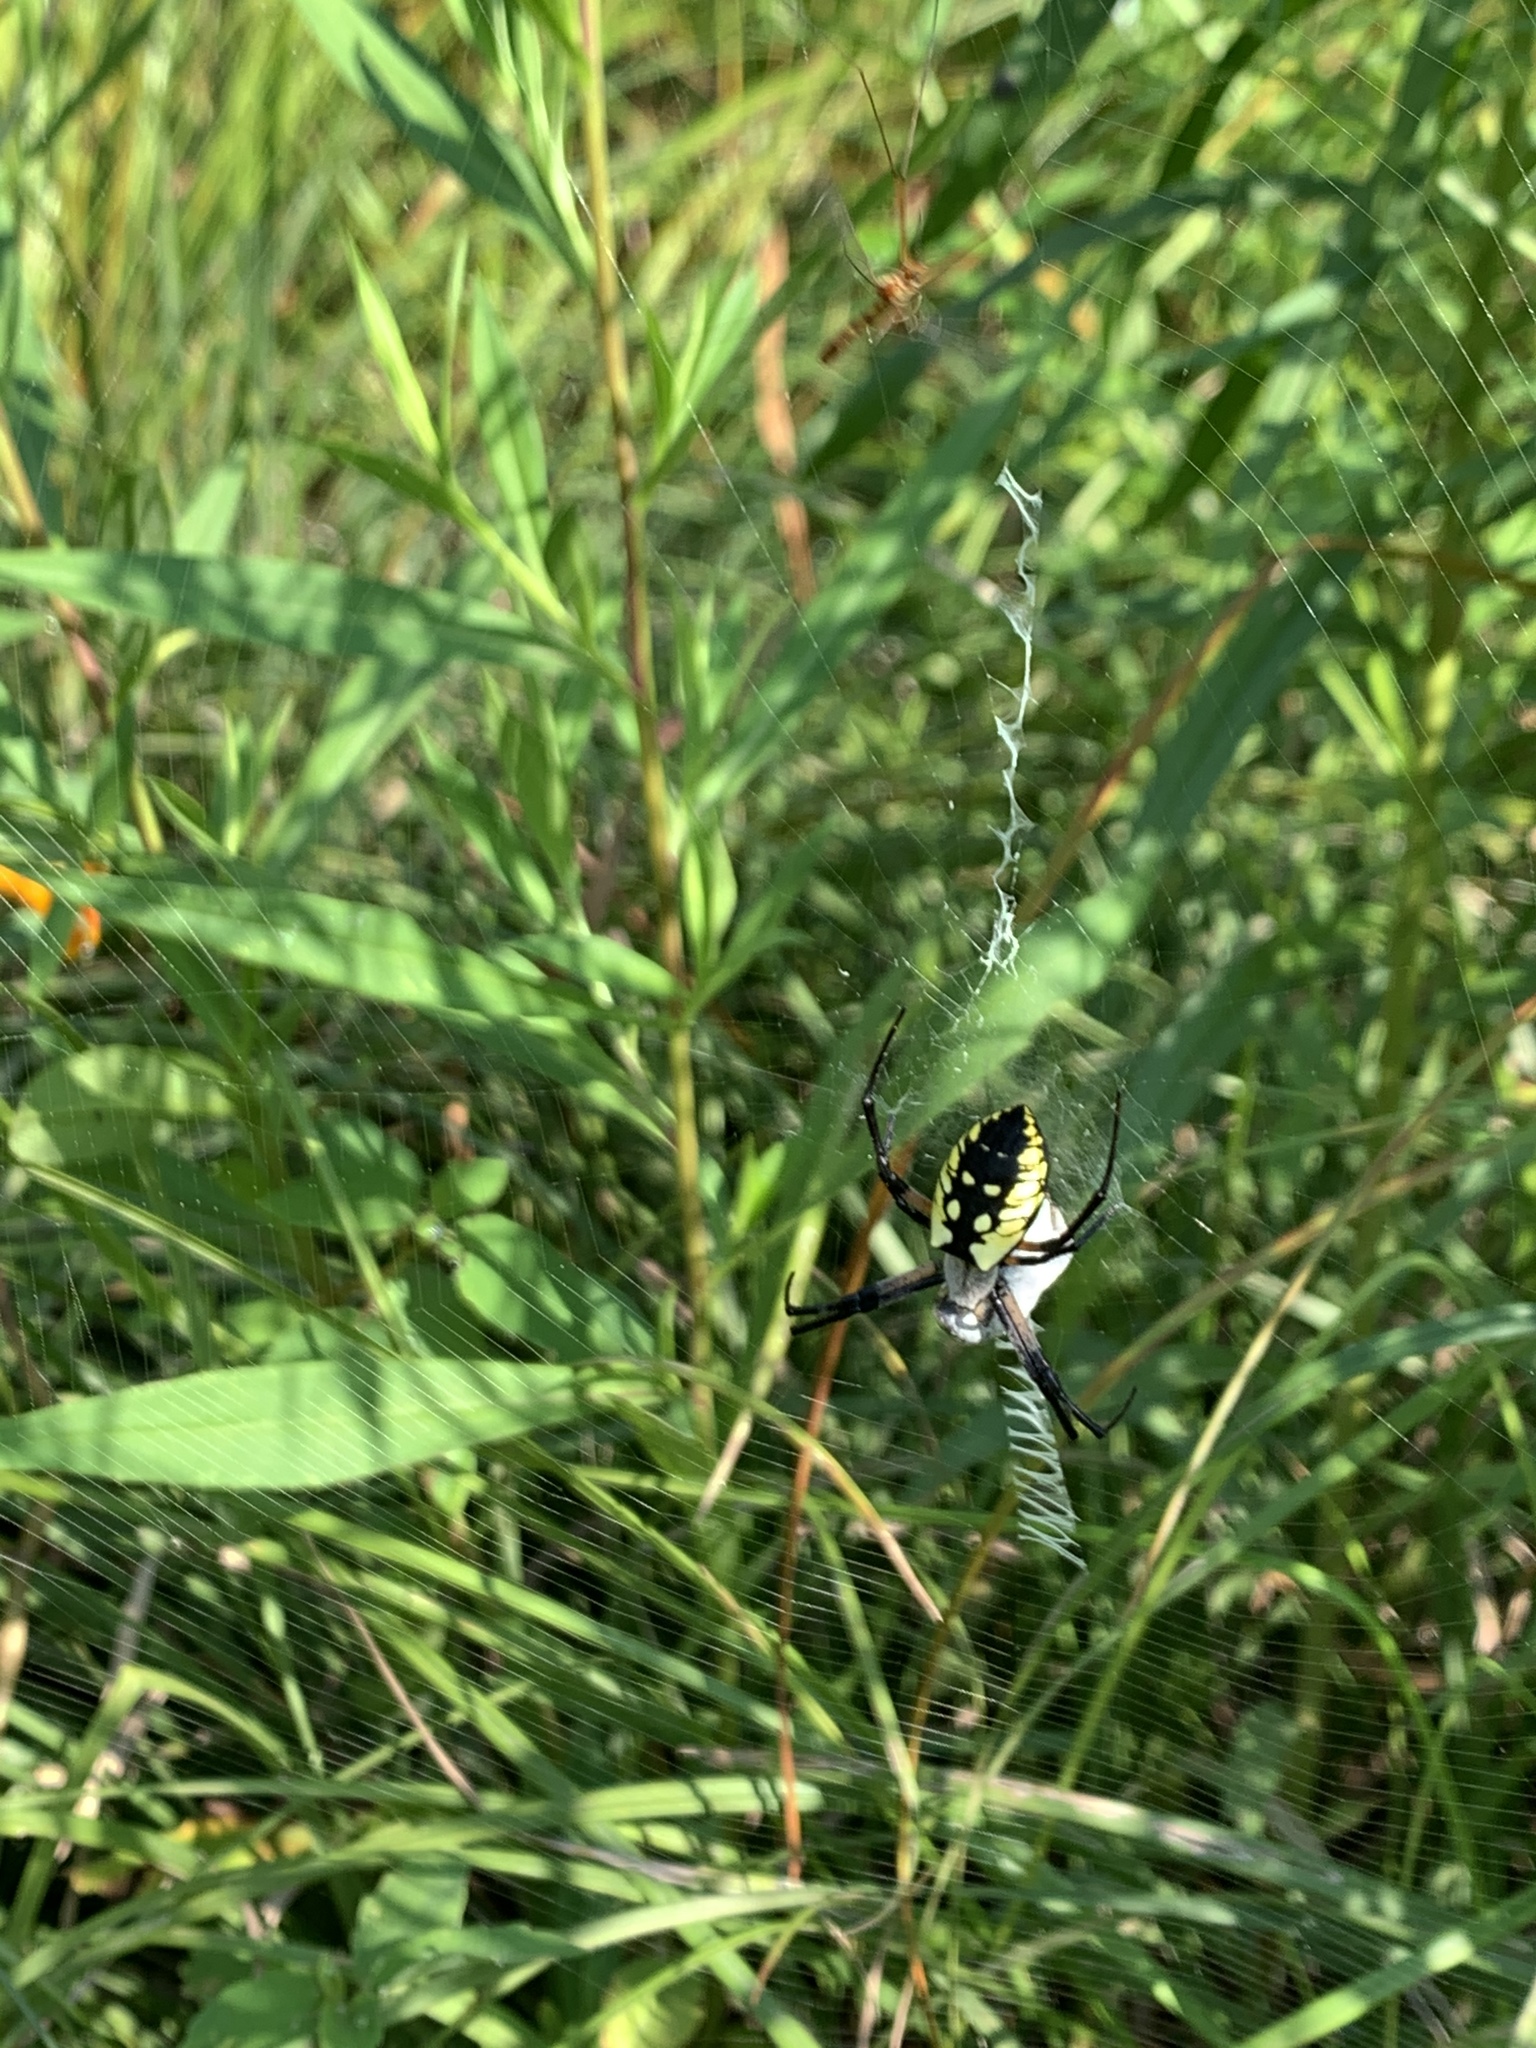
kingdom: Animalia
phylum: Arthropoda
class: Arachnida
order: Araneae
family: Araneidae
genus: Argiope
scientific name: Argiope aurantia
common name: Orb weavers
